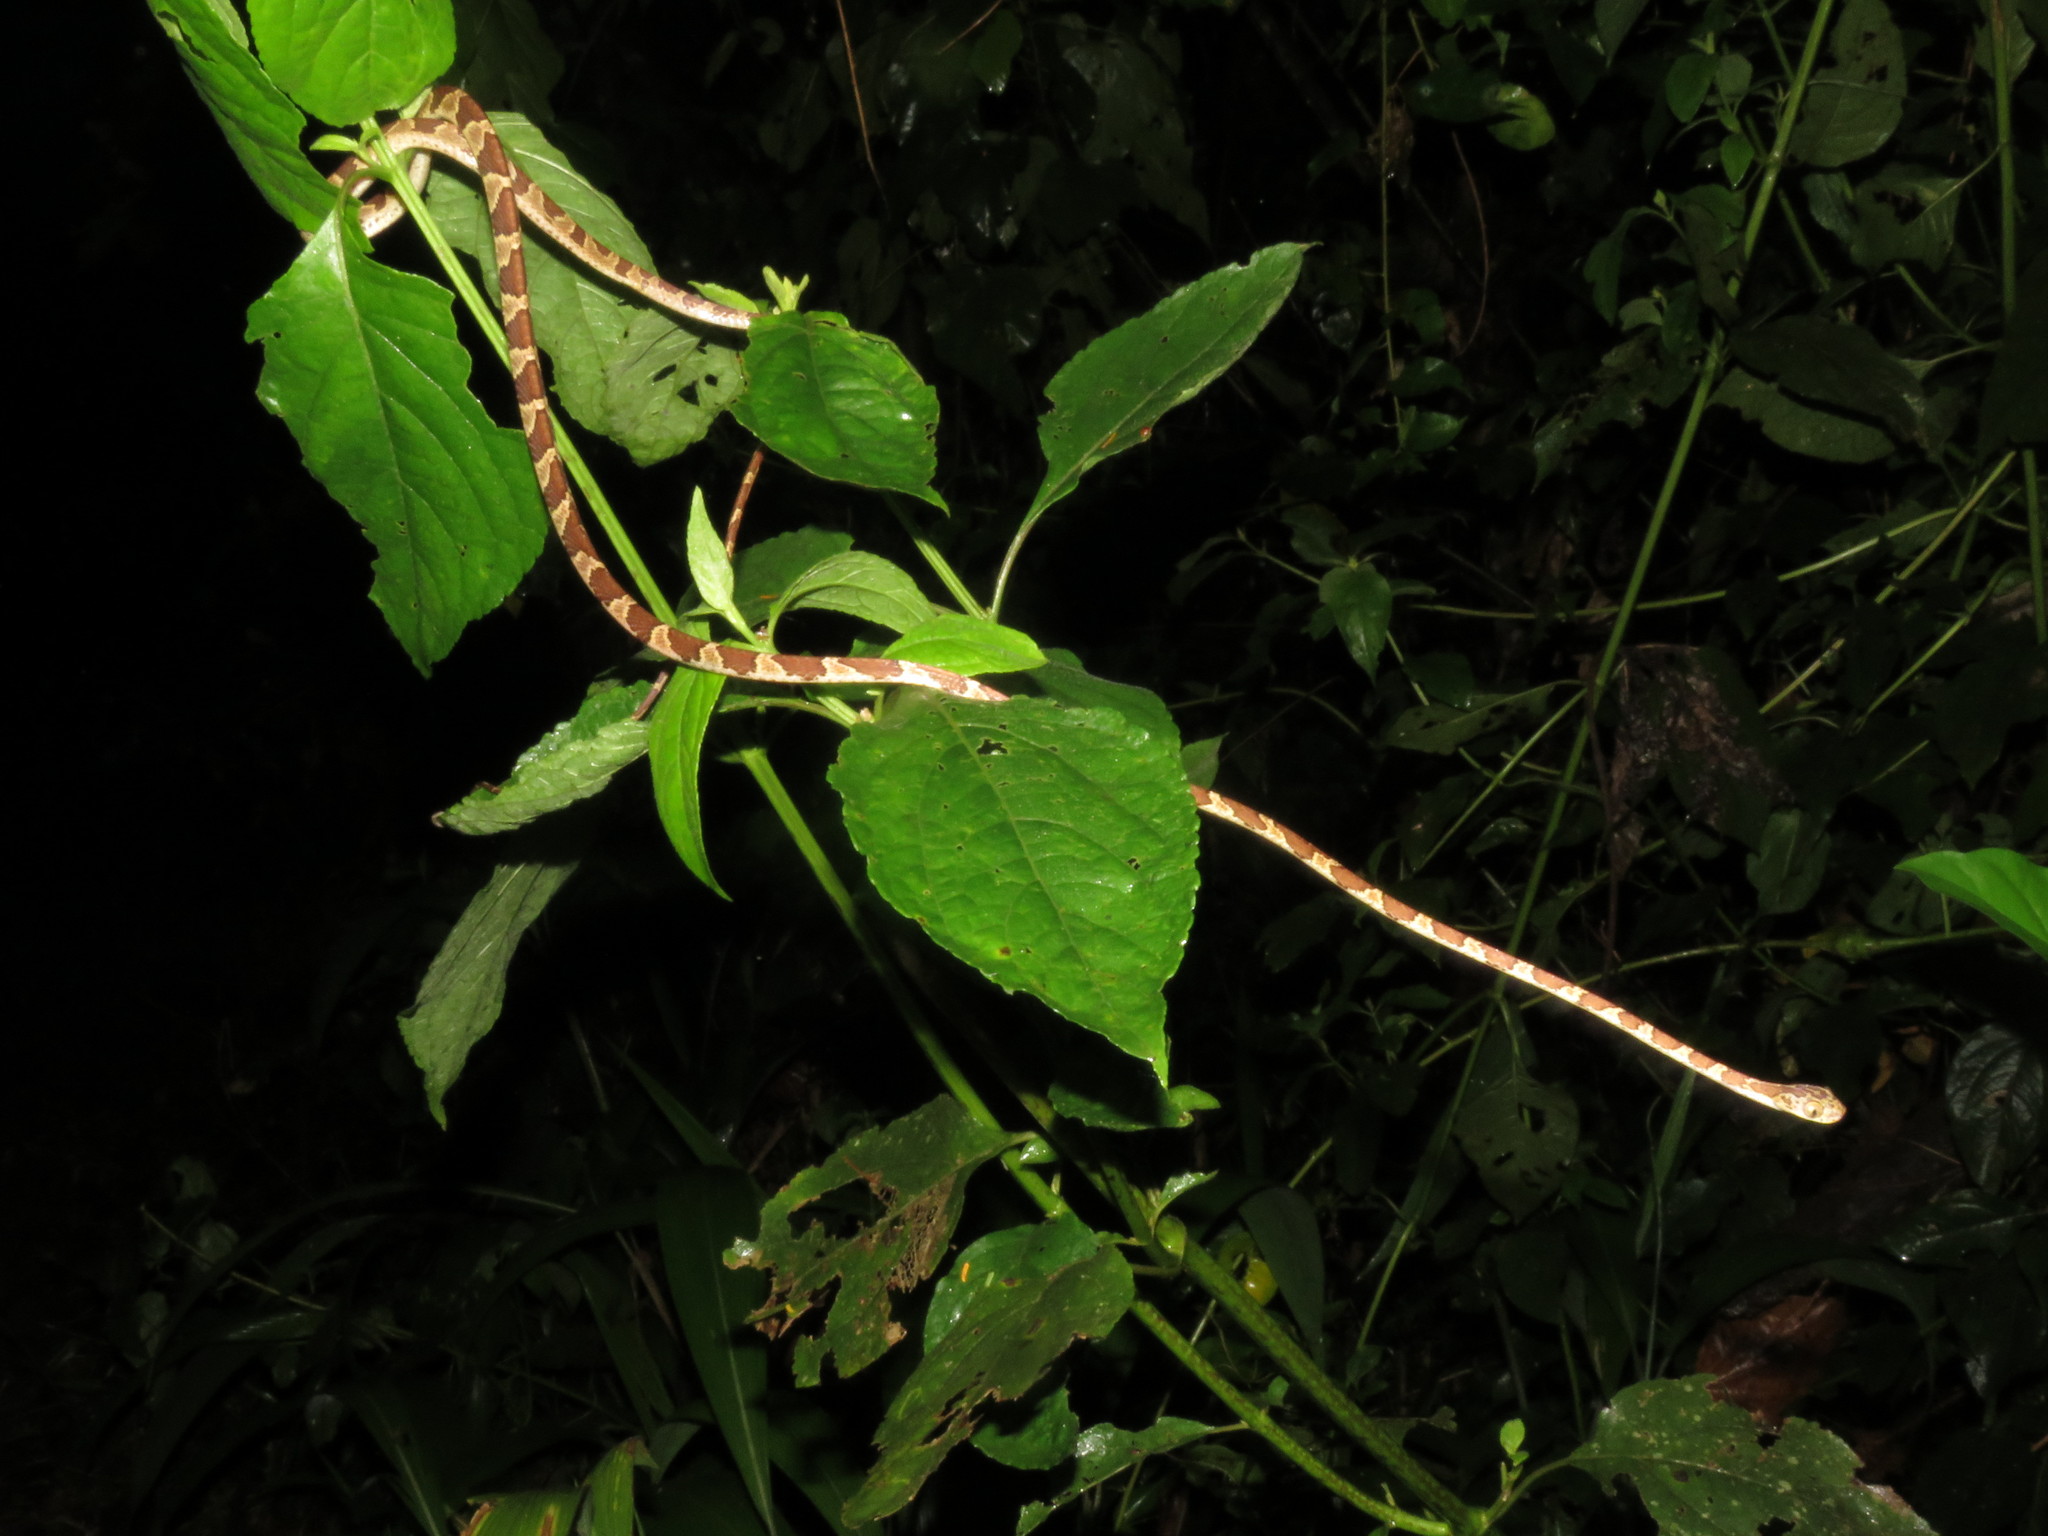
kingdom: Animalia
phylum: Chordata
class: Squamata
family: Colubridae
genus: Imantodes
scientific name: Imantodes cenchoa
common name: Blunthead tree snake
